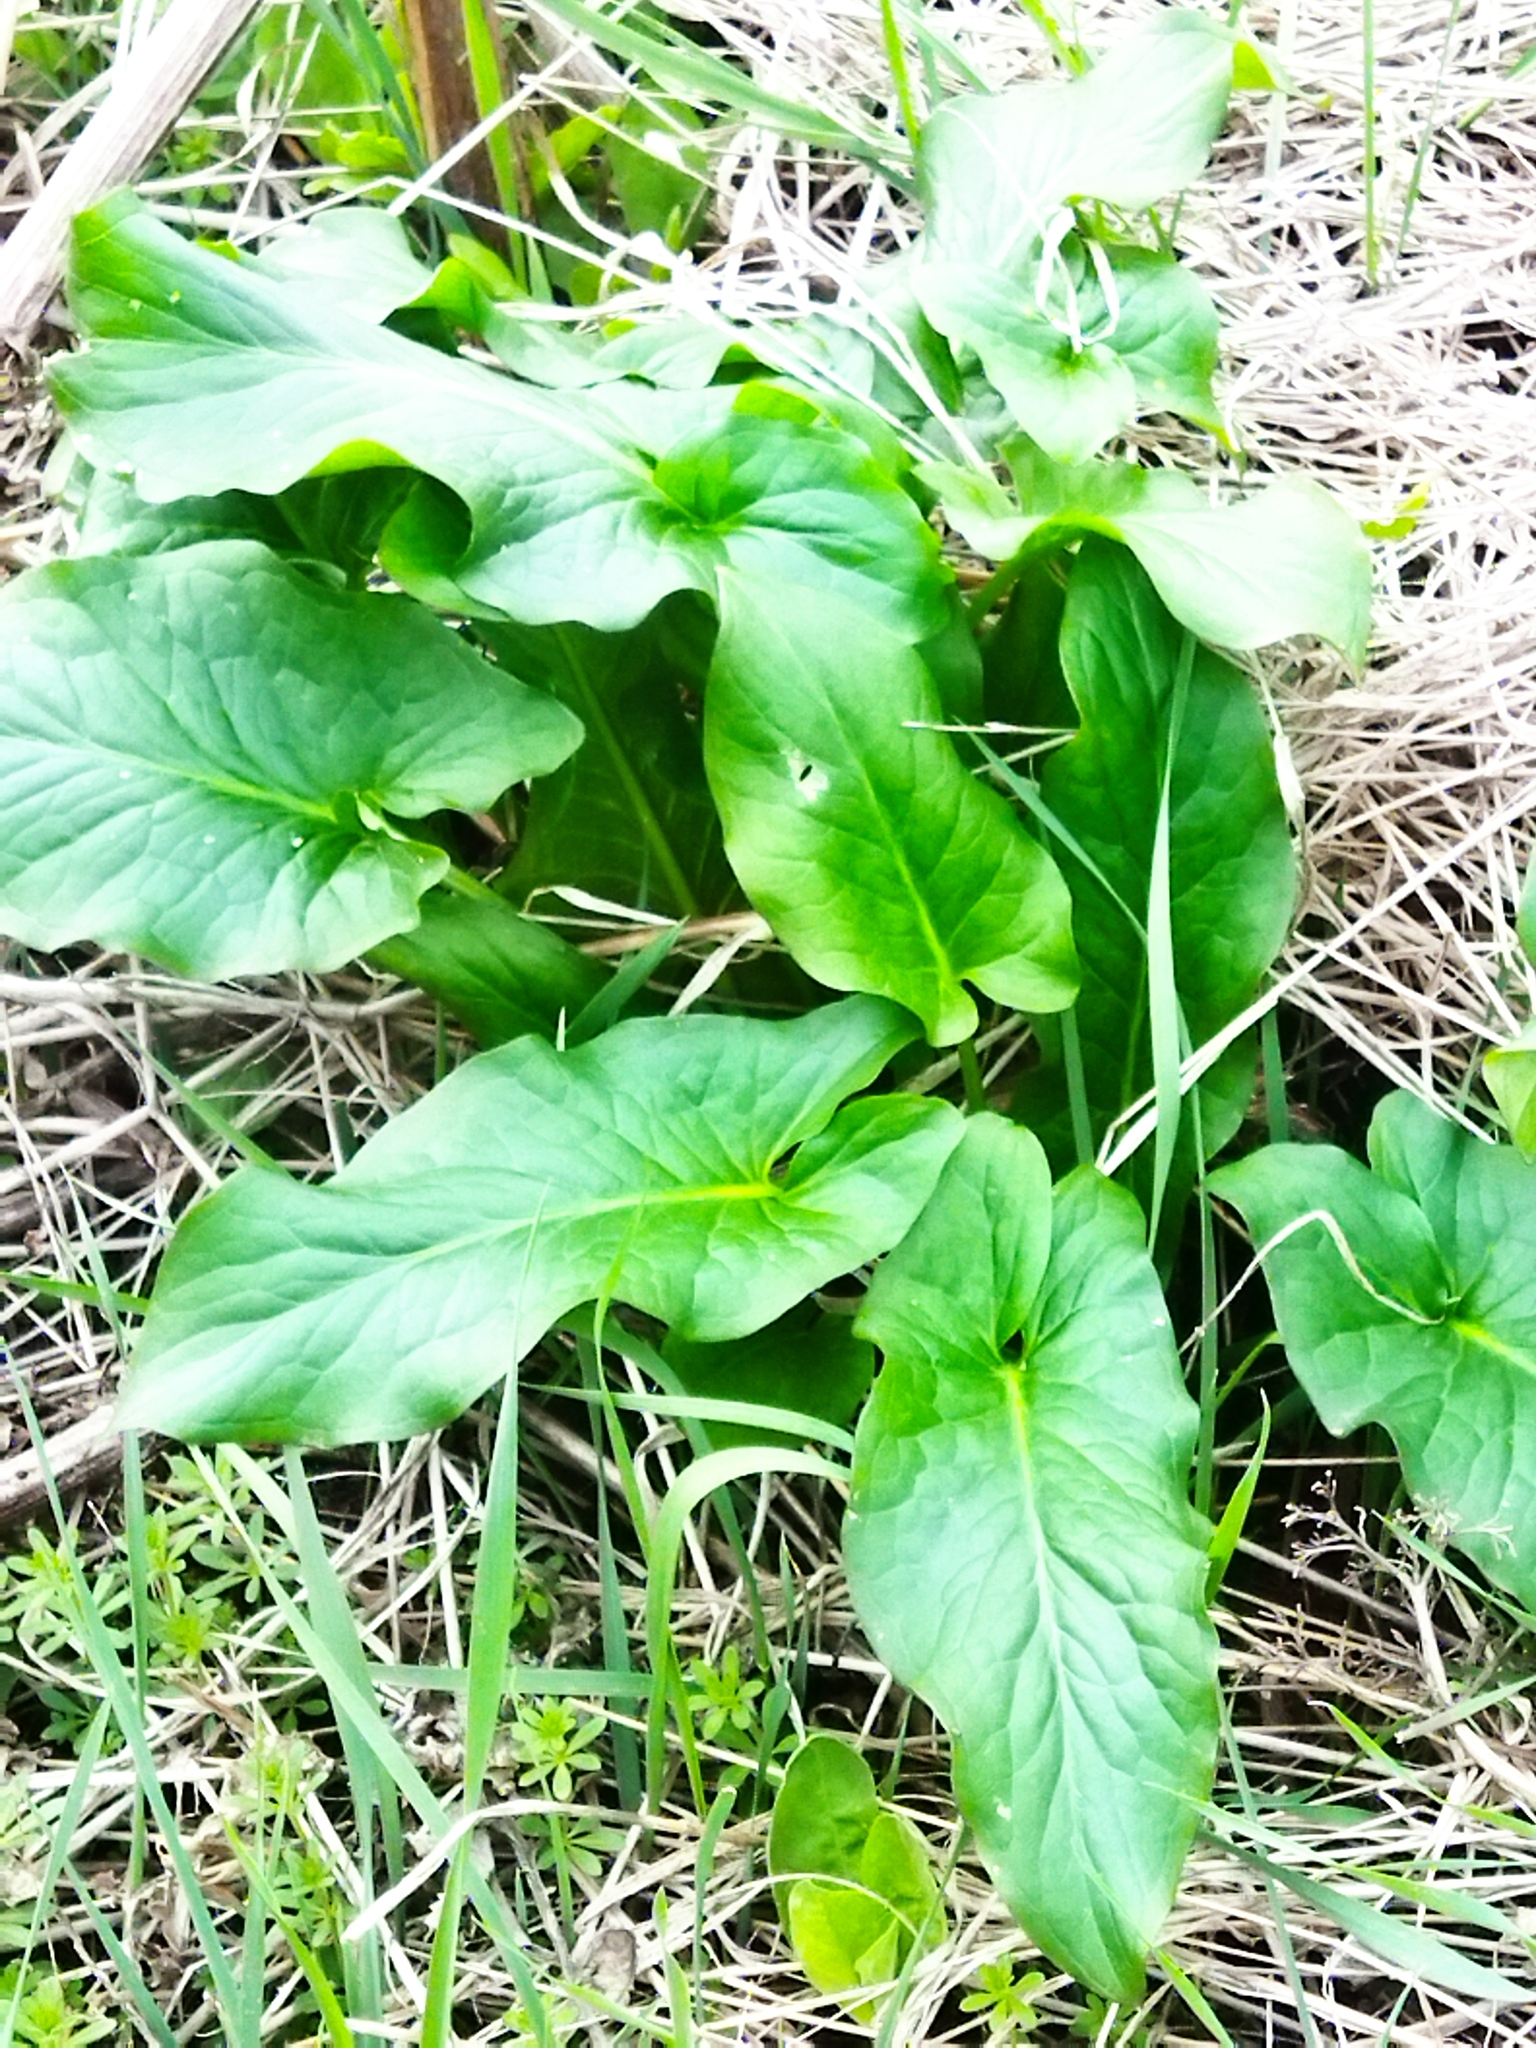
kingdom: Plantae
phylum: Tracheophyta
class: Liliopsida
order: Alismatales
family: Araceae
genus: Arum
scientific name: Arum maculatum
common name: Lords-and-ladies
